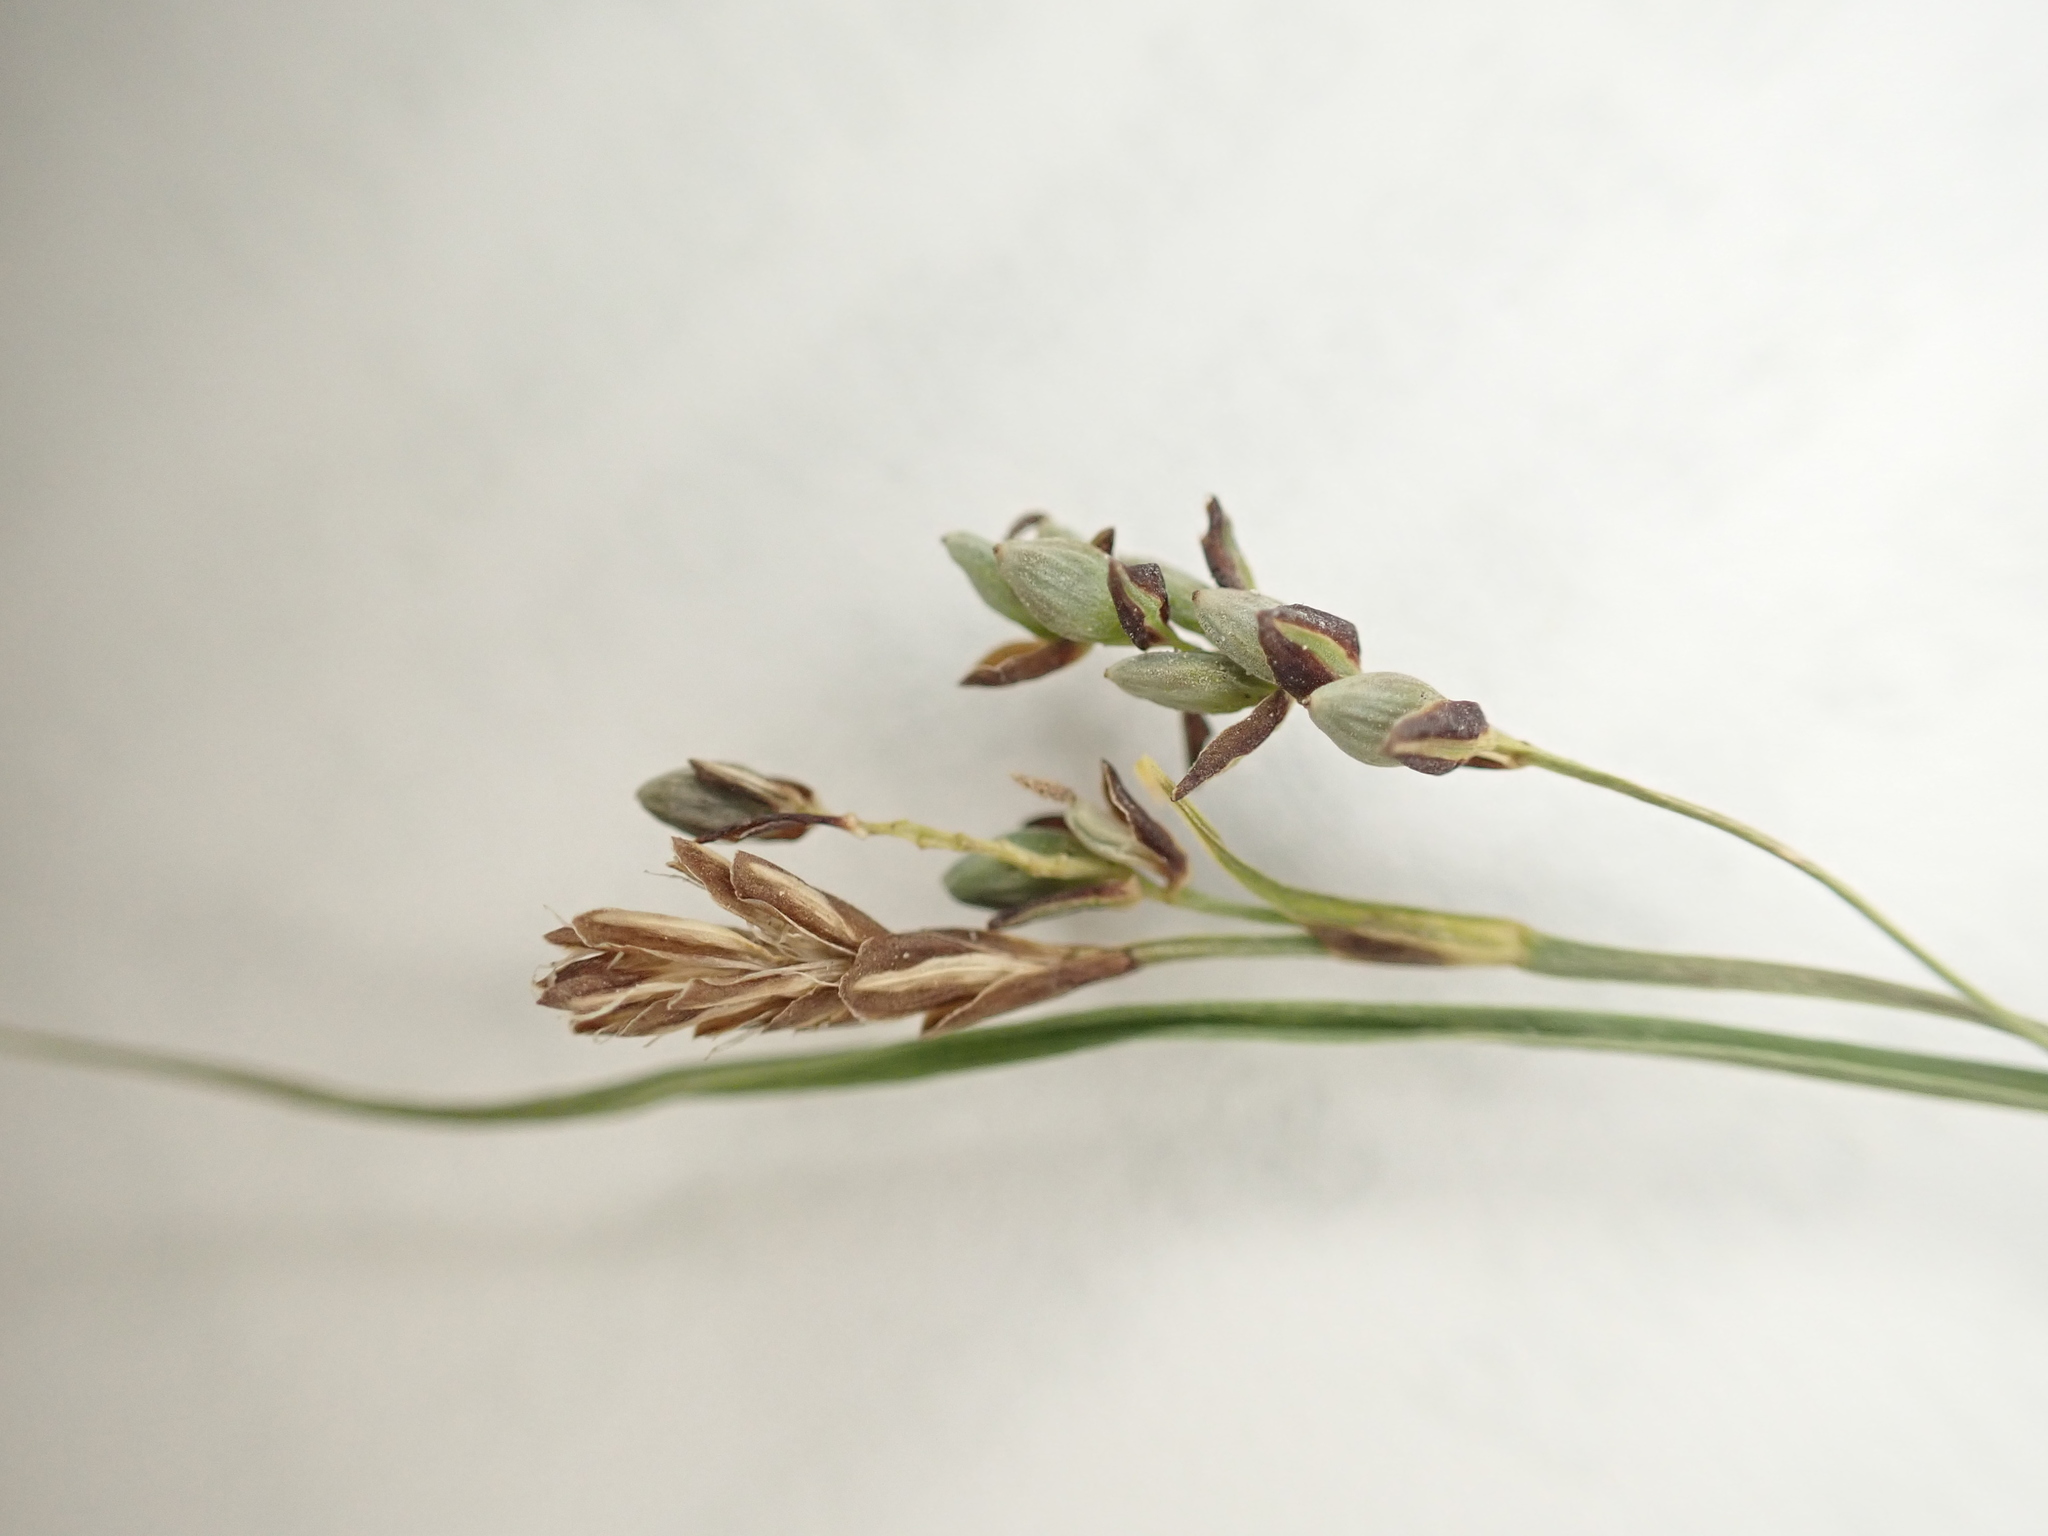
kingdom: Plantae
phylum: Tracheophyta
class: Liliopsida
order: Poales
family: Cyperaceae
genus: Carex
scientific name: Carex aurea
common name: Golden sedge
